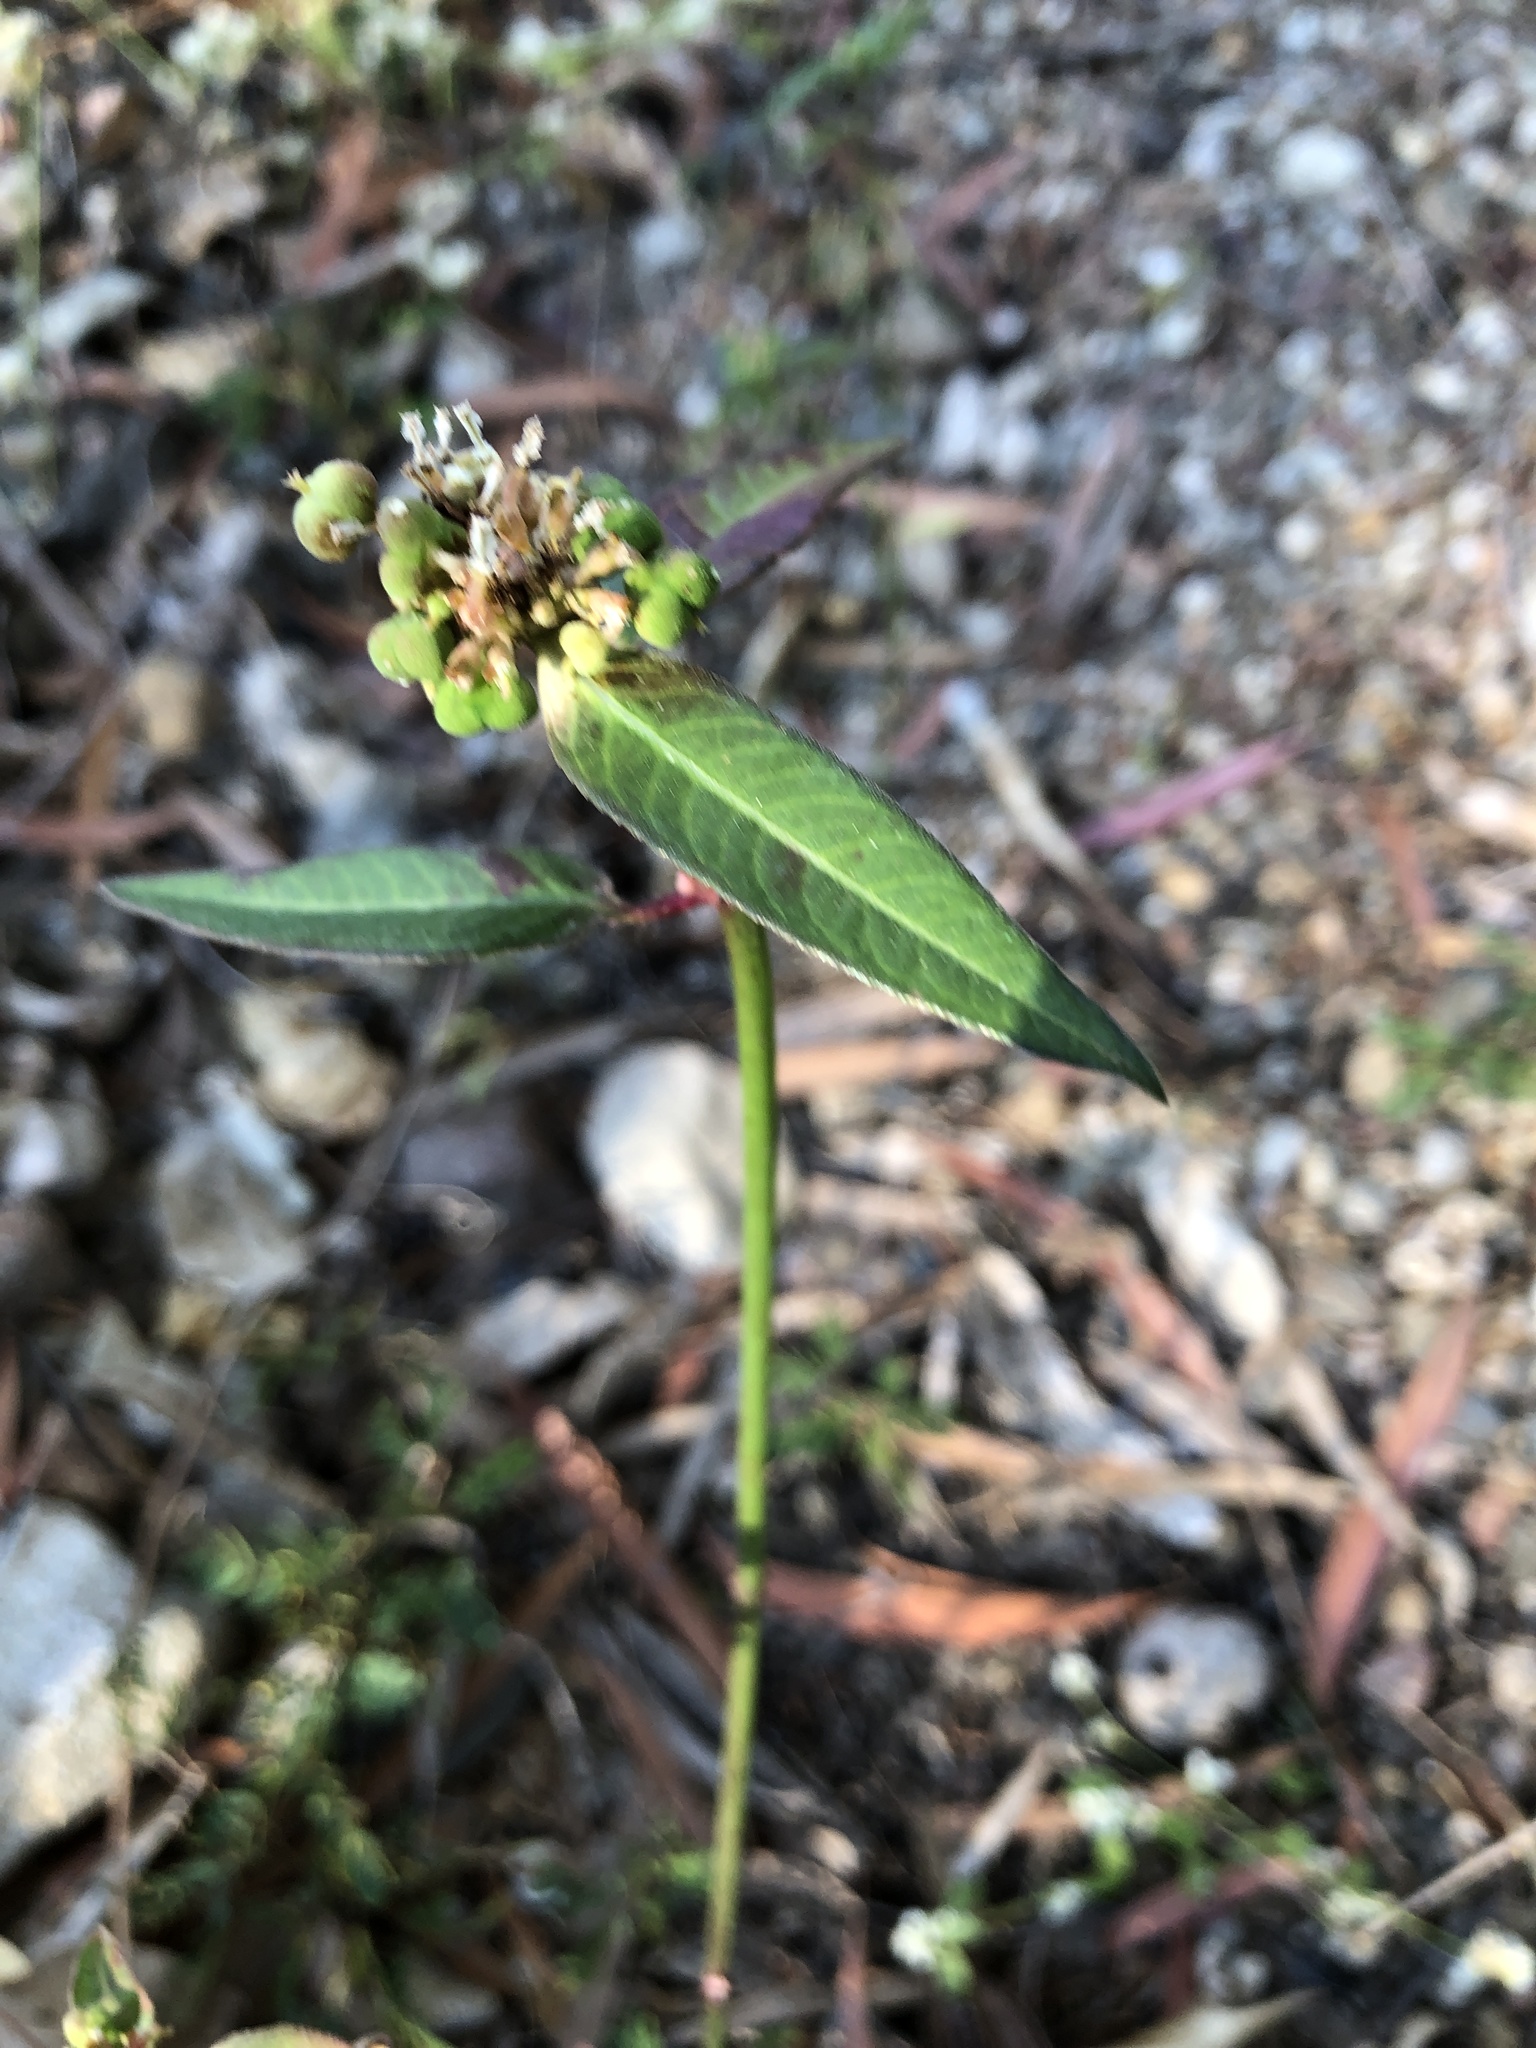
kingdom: Plantae
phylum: Tracheophyta
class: Magnoliopsida
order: Malpighiales
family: Euphorbiaceae
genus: Euphorbia
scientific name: Euphorbia heterophylla
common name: Mexican fireplant
